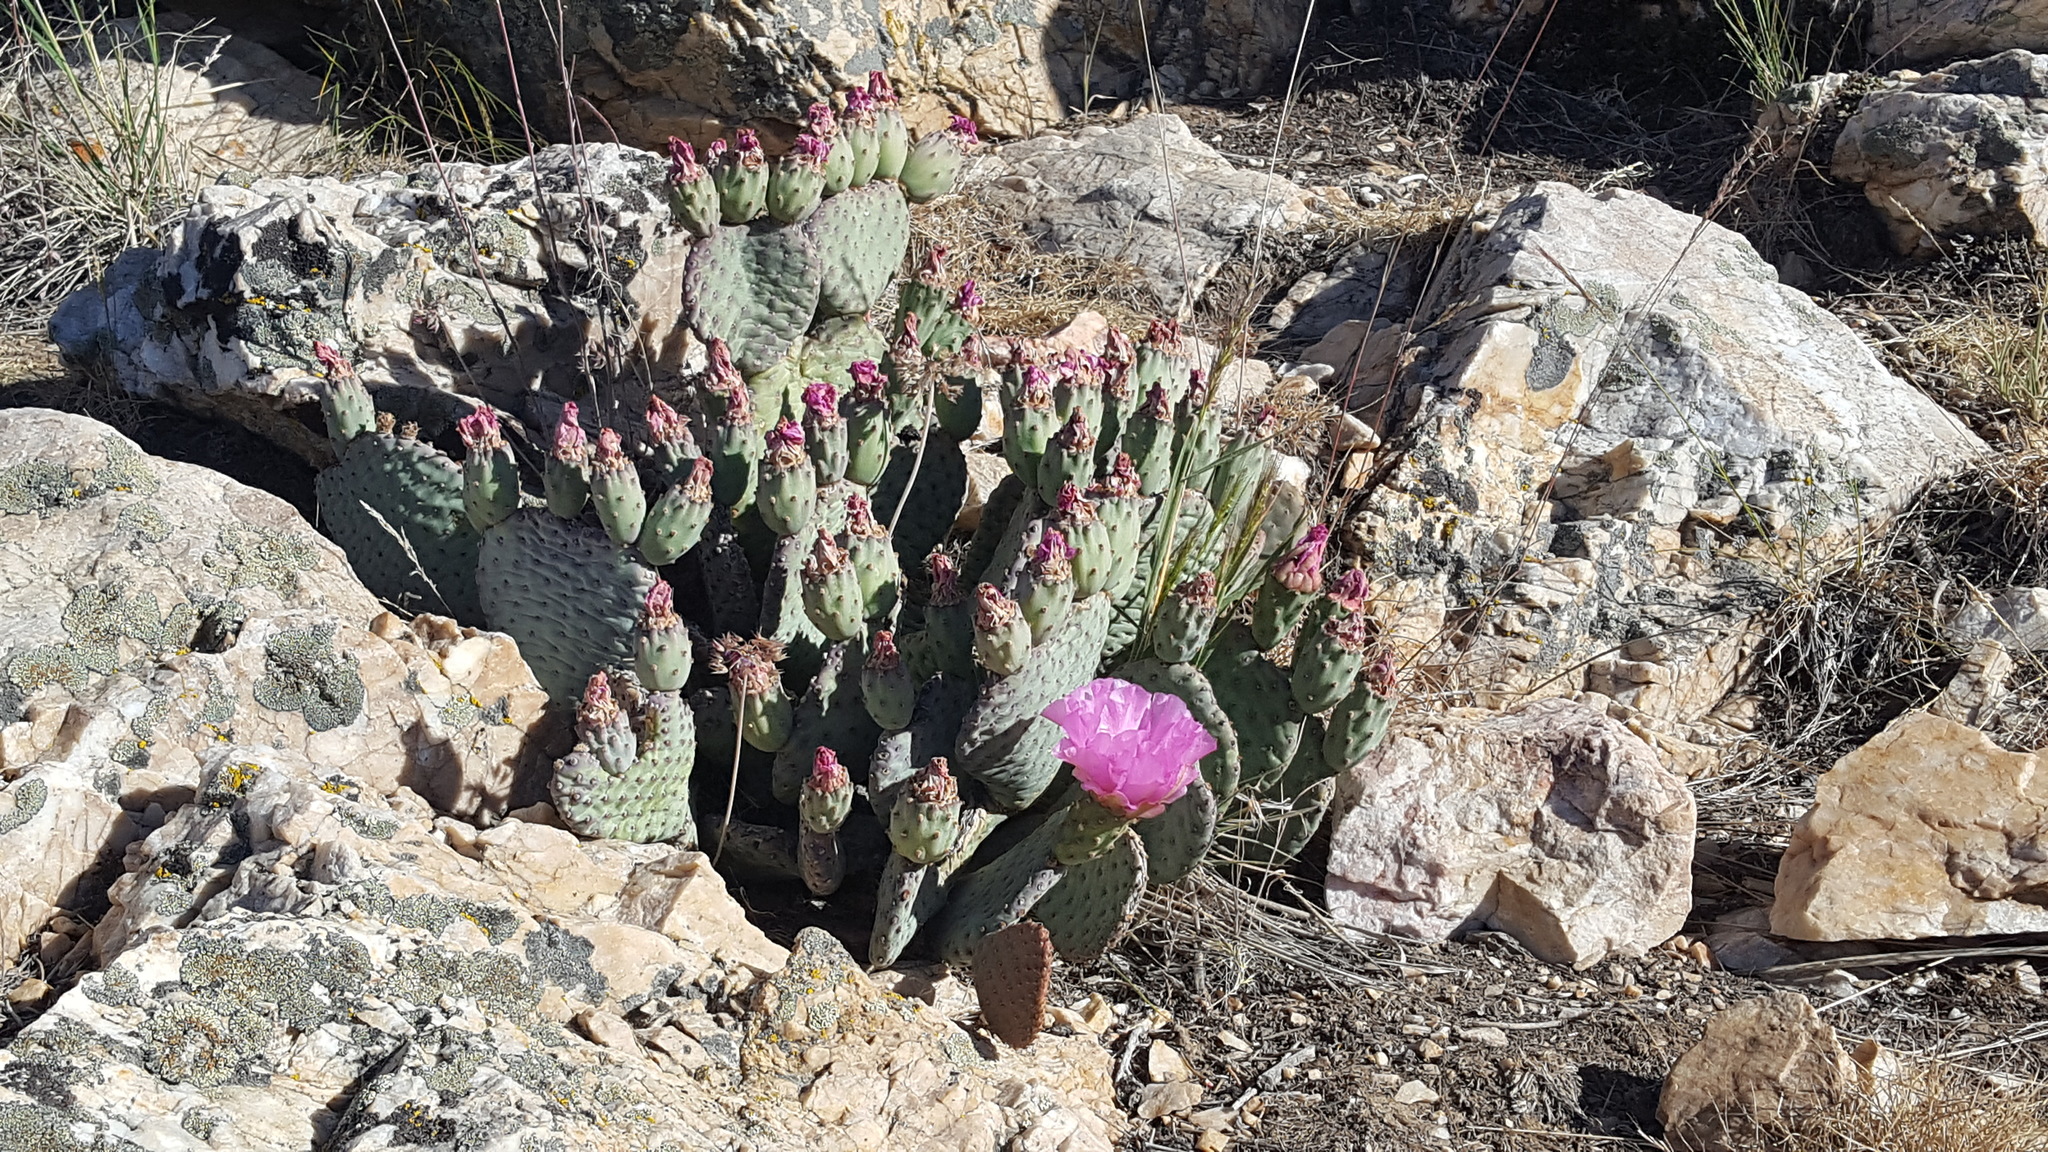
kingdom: Plantae
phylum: Tracheophyta
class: Magnoliopsida
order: Caryophyllales
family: Cactaceae
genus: Opuntia
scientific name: Opuntia basilaris
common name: Beavertail prickly-pear
